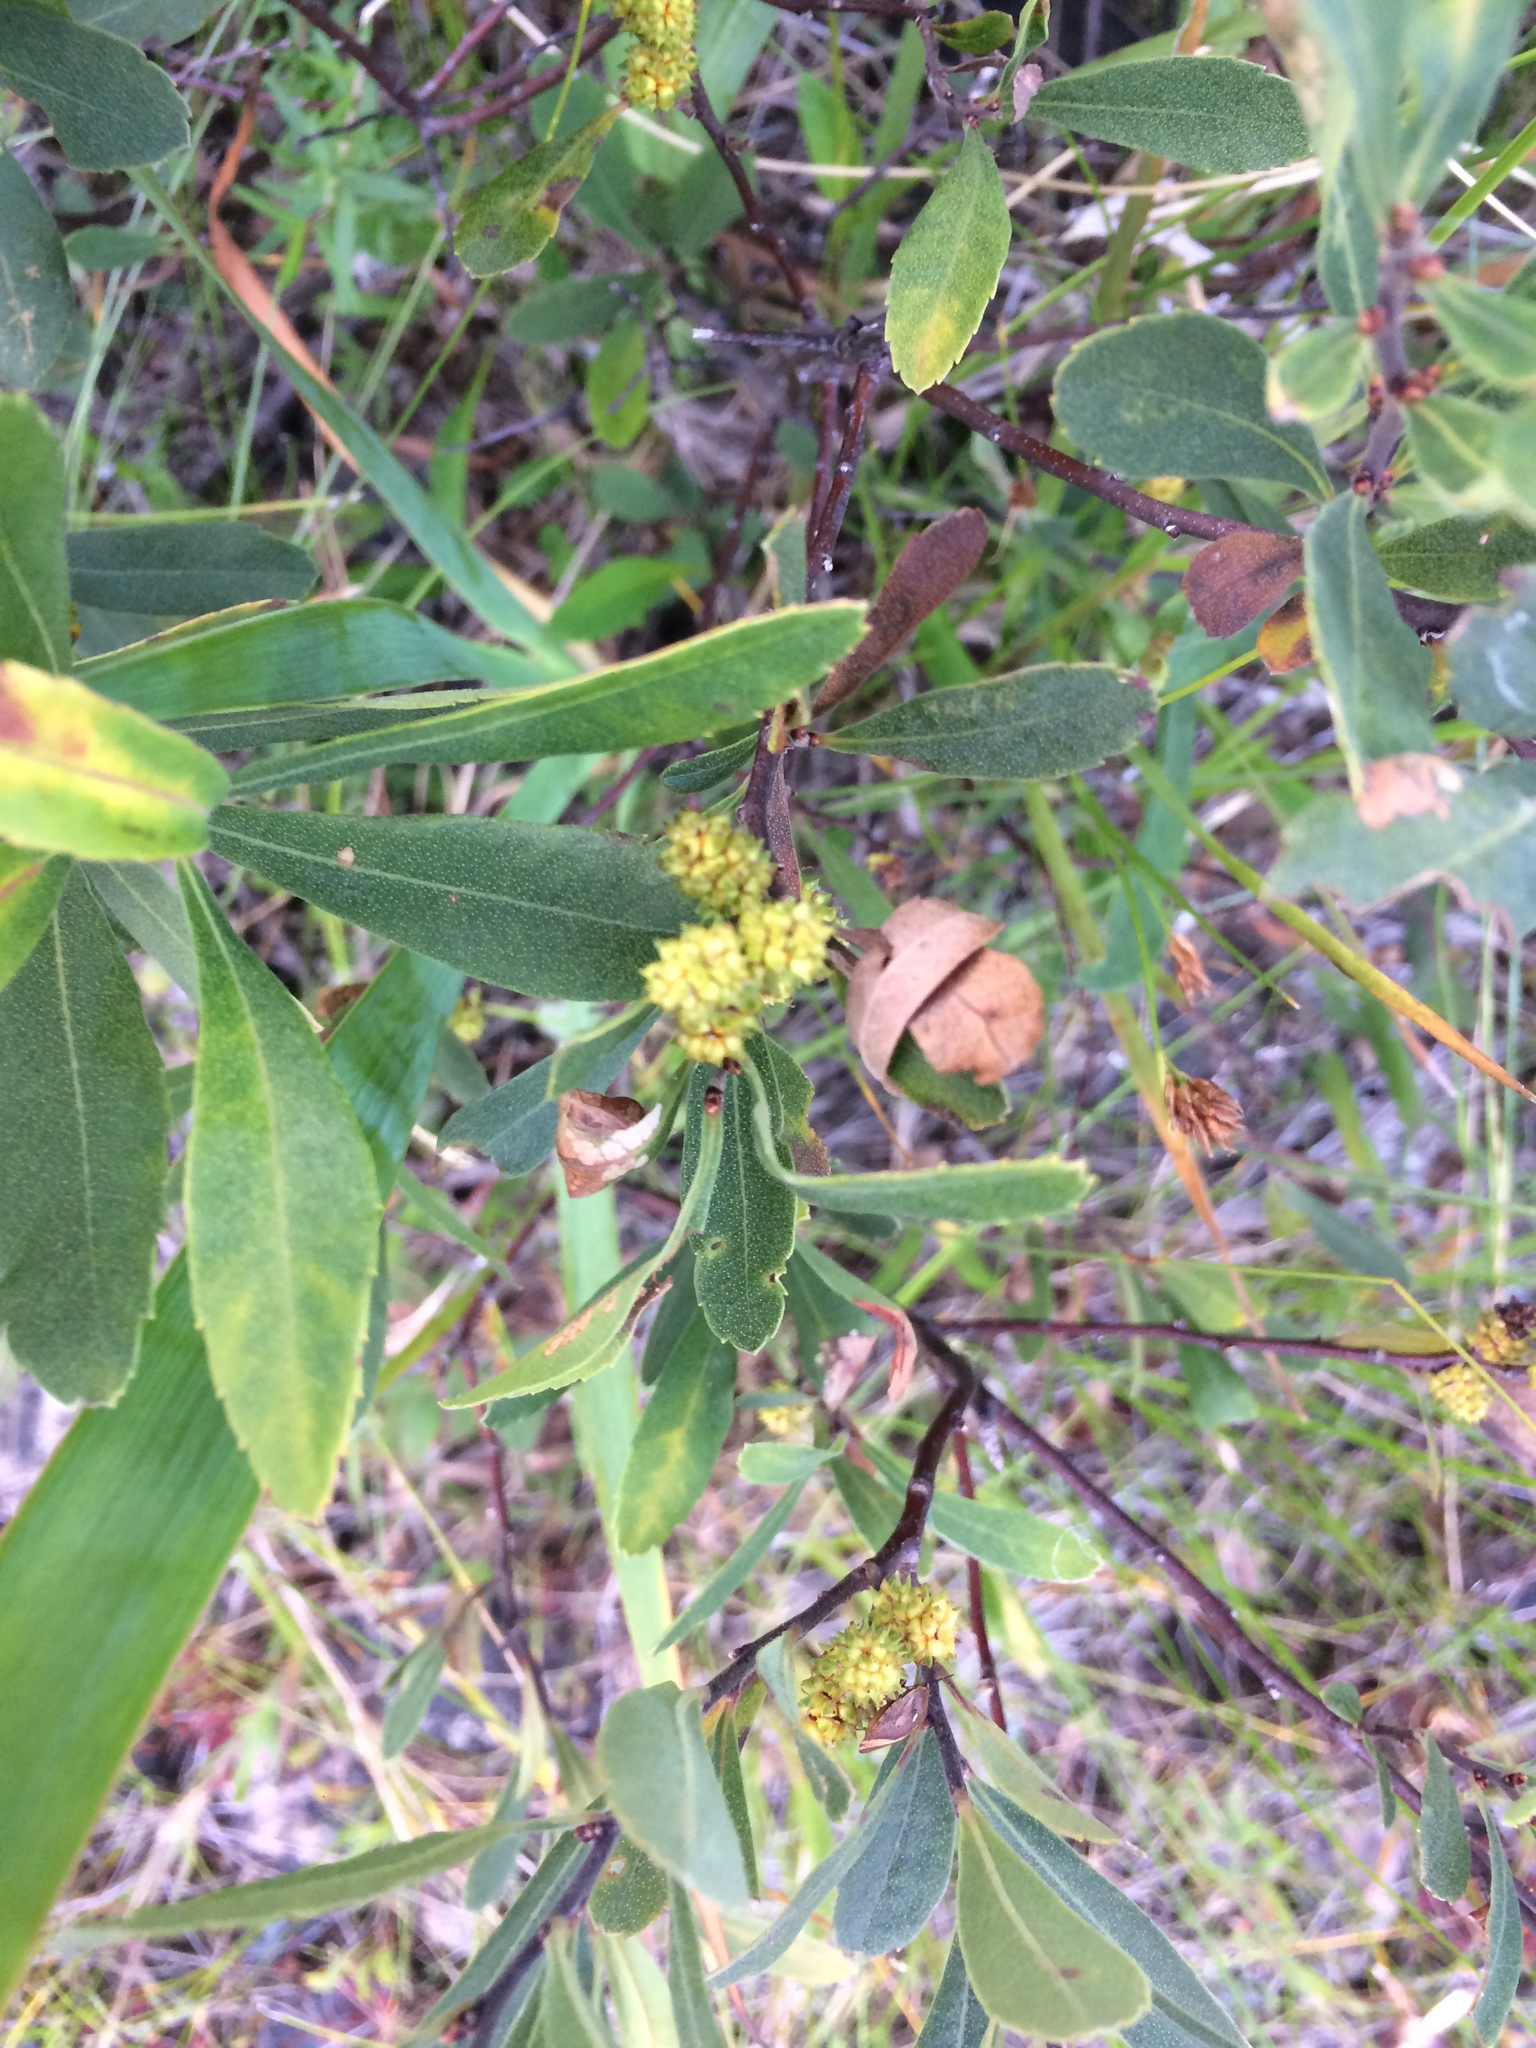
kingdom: Plantae
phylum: Tracheophyta
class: Magnoliopsida
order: Fagales
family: Myricaceae
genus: Myrica
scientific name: Myrica gale
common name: Sweet gale
